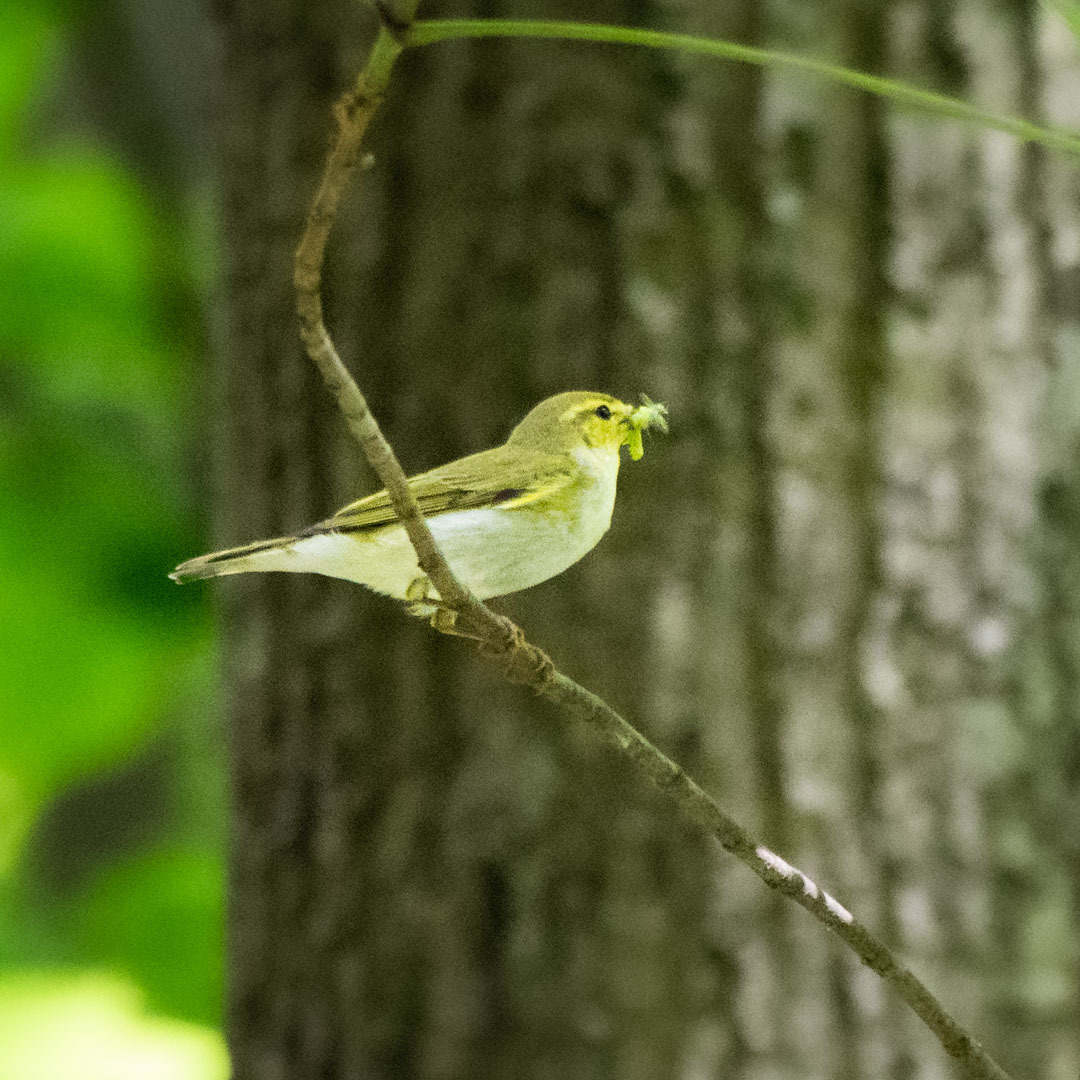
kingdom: Animalia
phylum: Chordata
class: Aves
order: Passeriformes
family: Phylloscopidae
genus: Phylloscopus
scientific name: Phylloscopus sibillatrix
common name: Wood warbler
